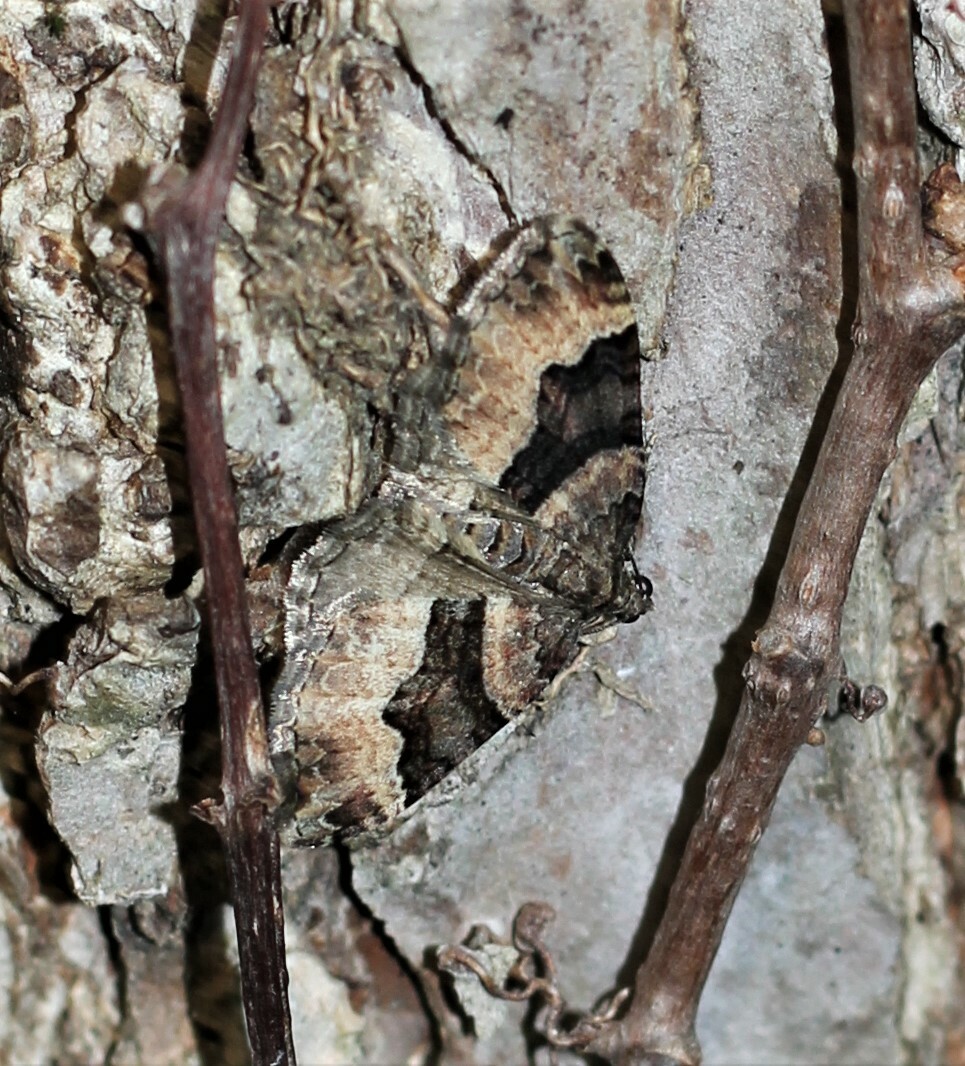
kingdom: Animalia
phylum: Arthropoda
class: Insecta
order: Lepidoptera
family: Geometridae
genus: Xanthorhoe
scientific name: Xanthorhoe lacustrata
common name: Toothed brown carpet
